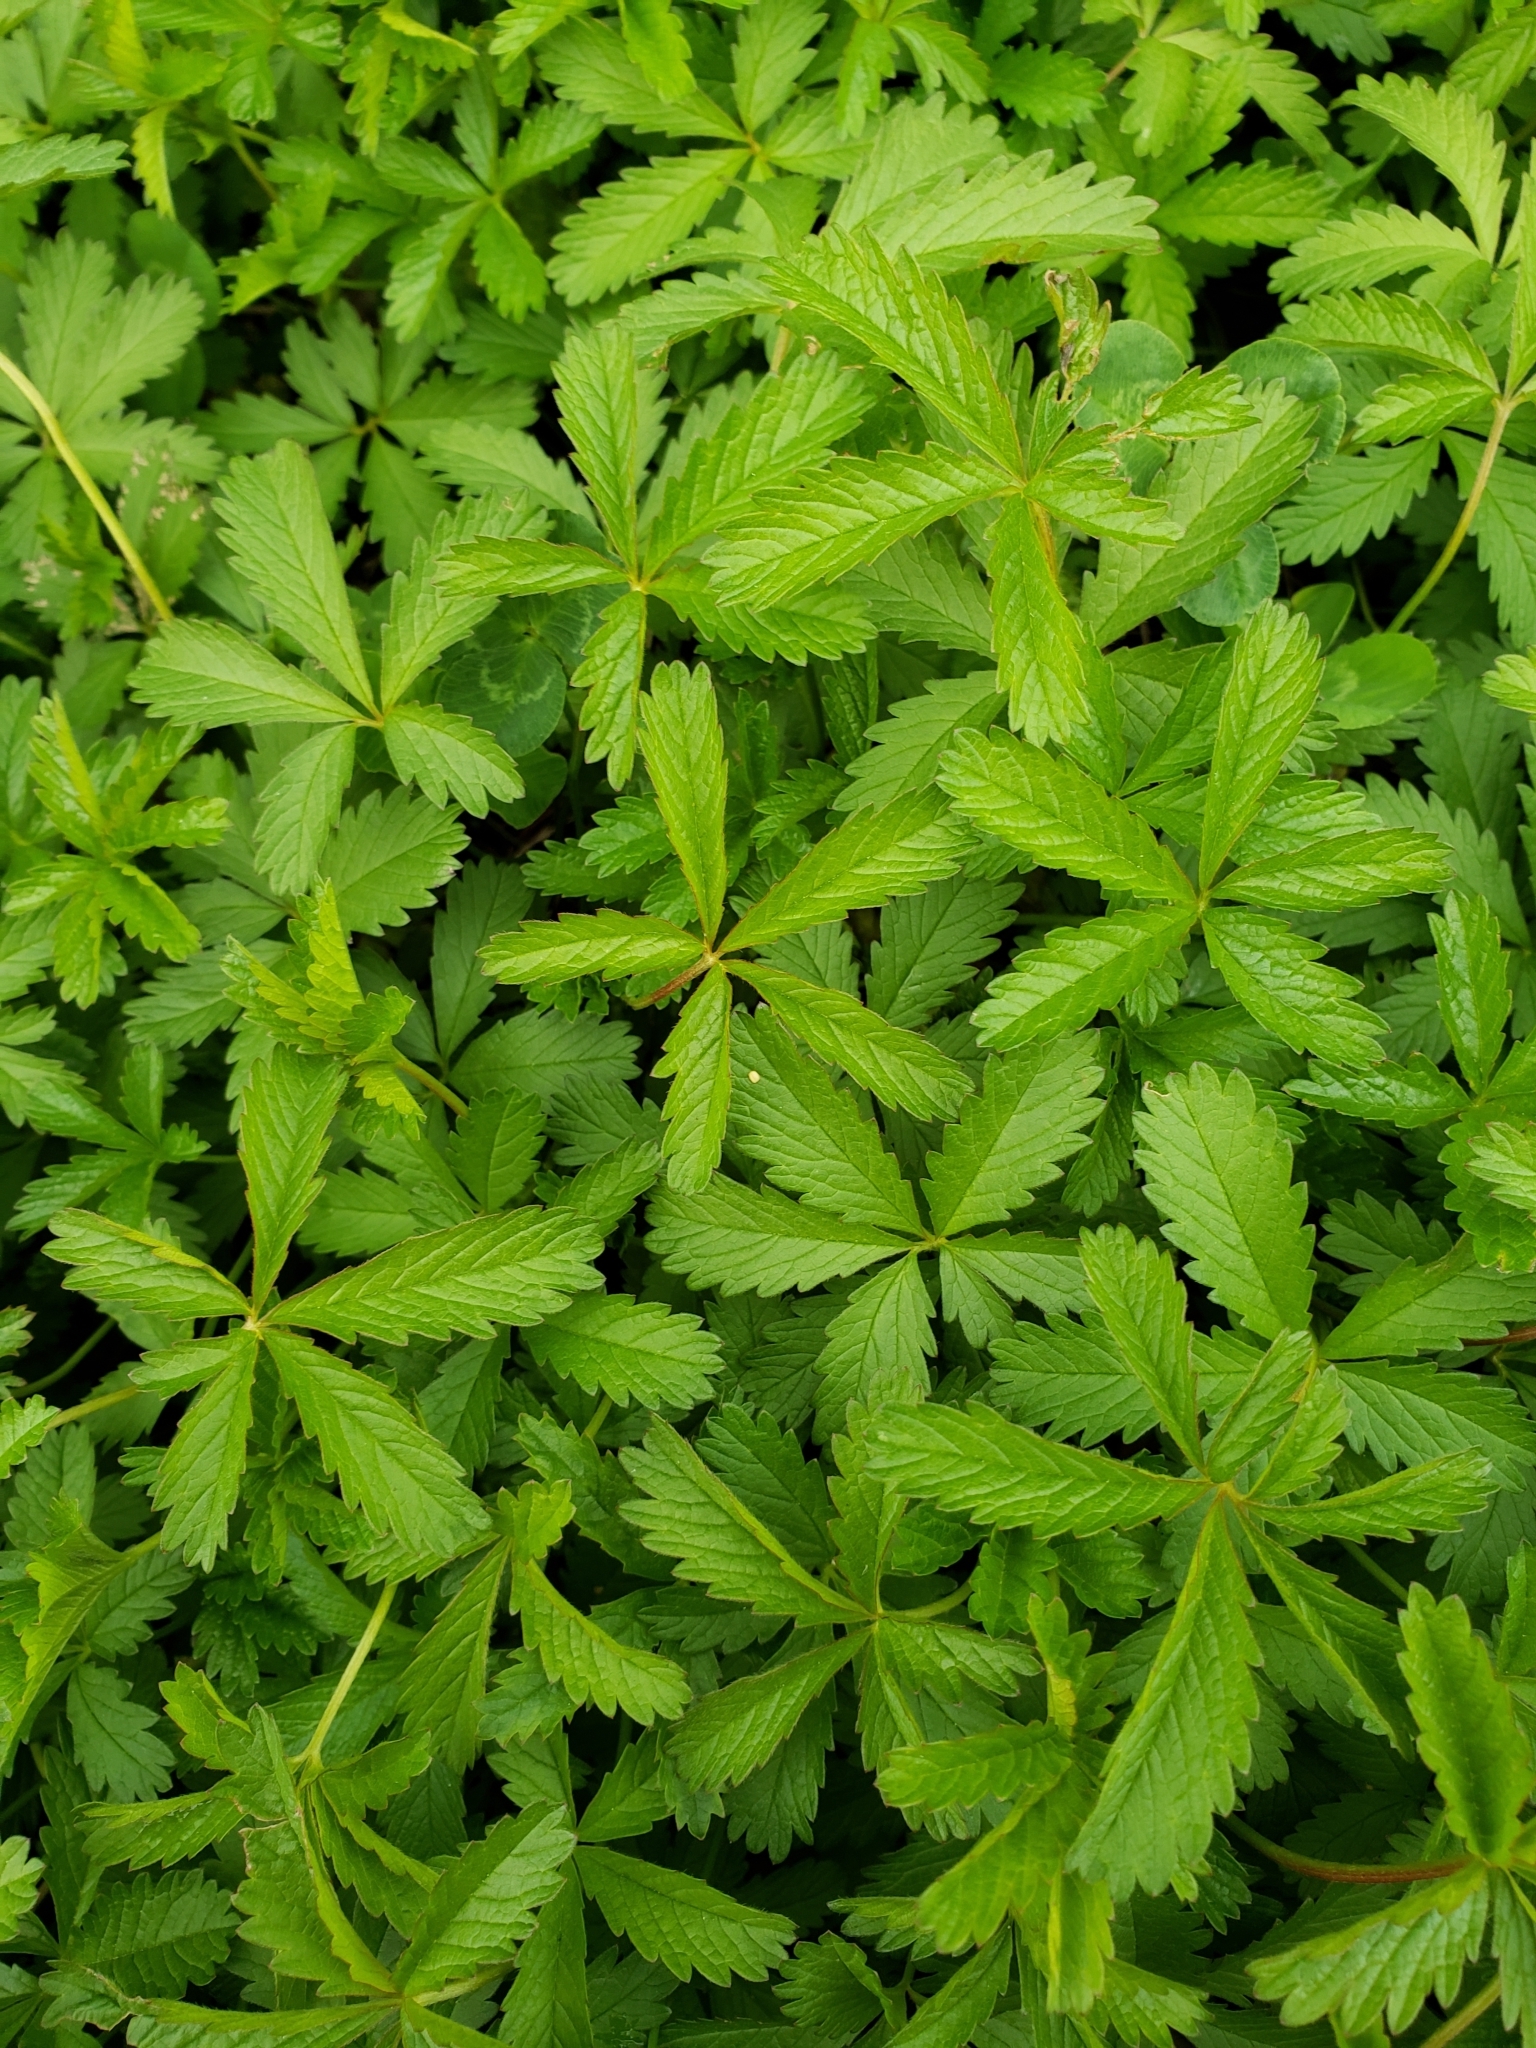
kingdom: Plantae
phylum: Tracheophyta
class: Magnoliopsida
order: Rosales
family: Rosaceae
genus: Potentilla
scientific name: Potentilla reptans
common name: Creeping cinquefoil
